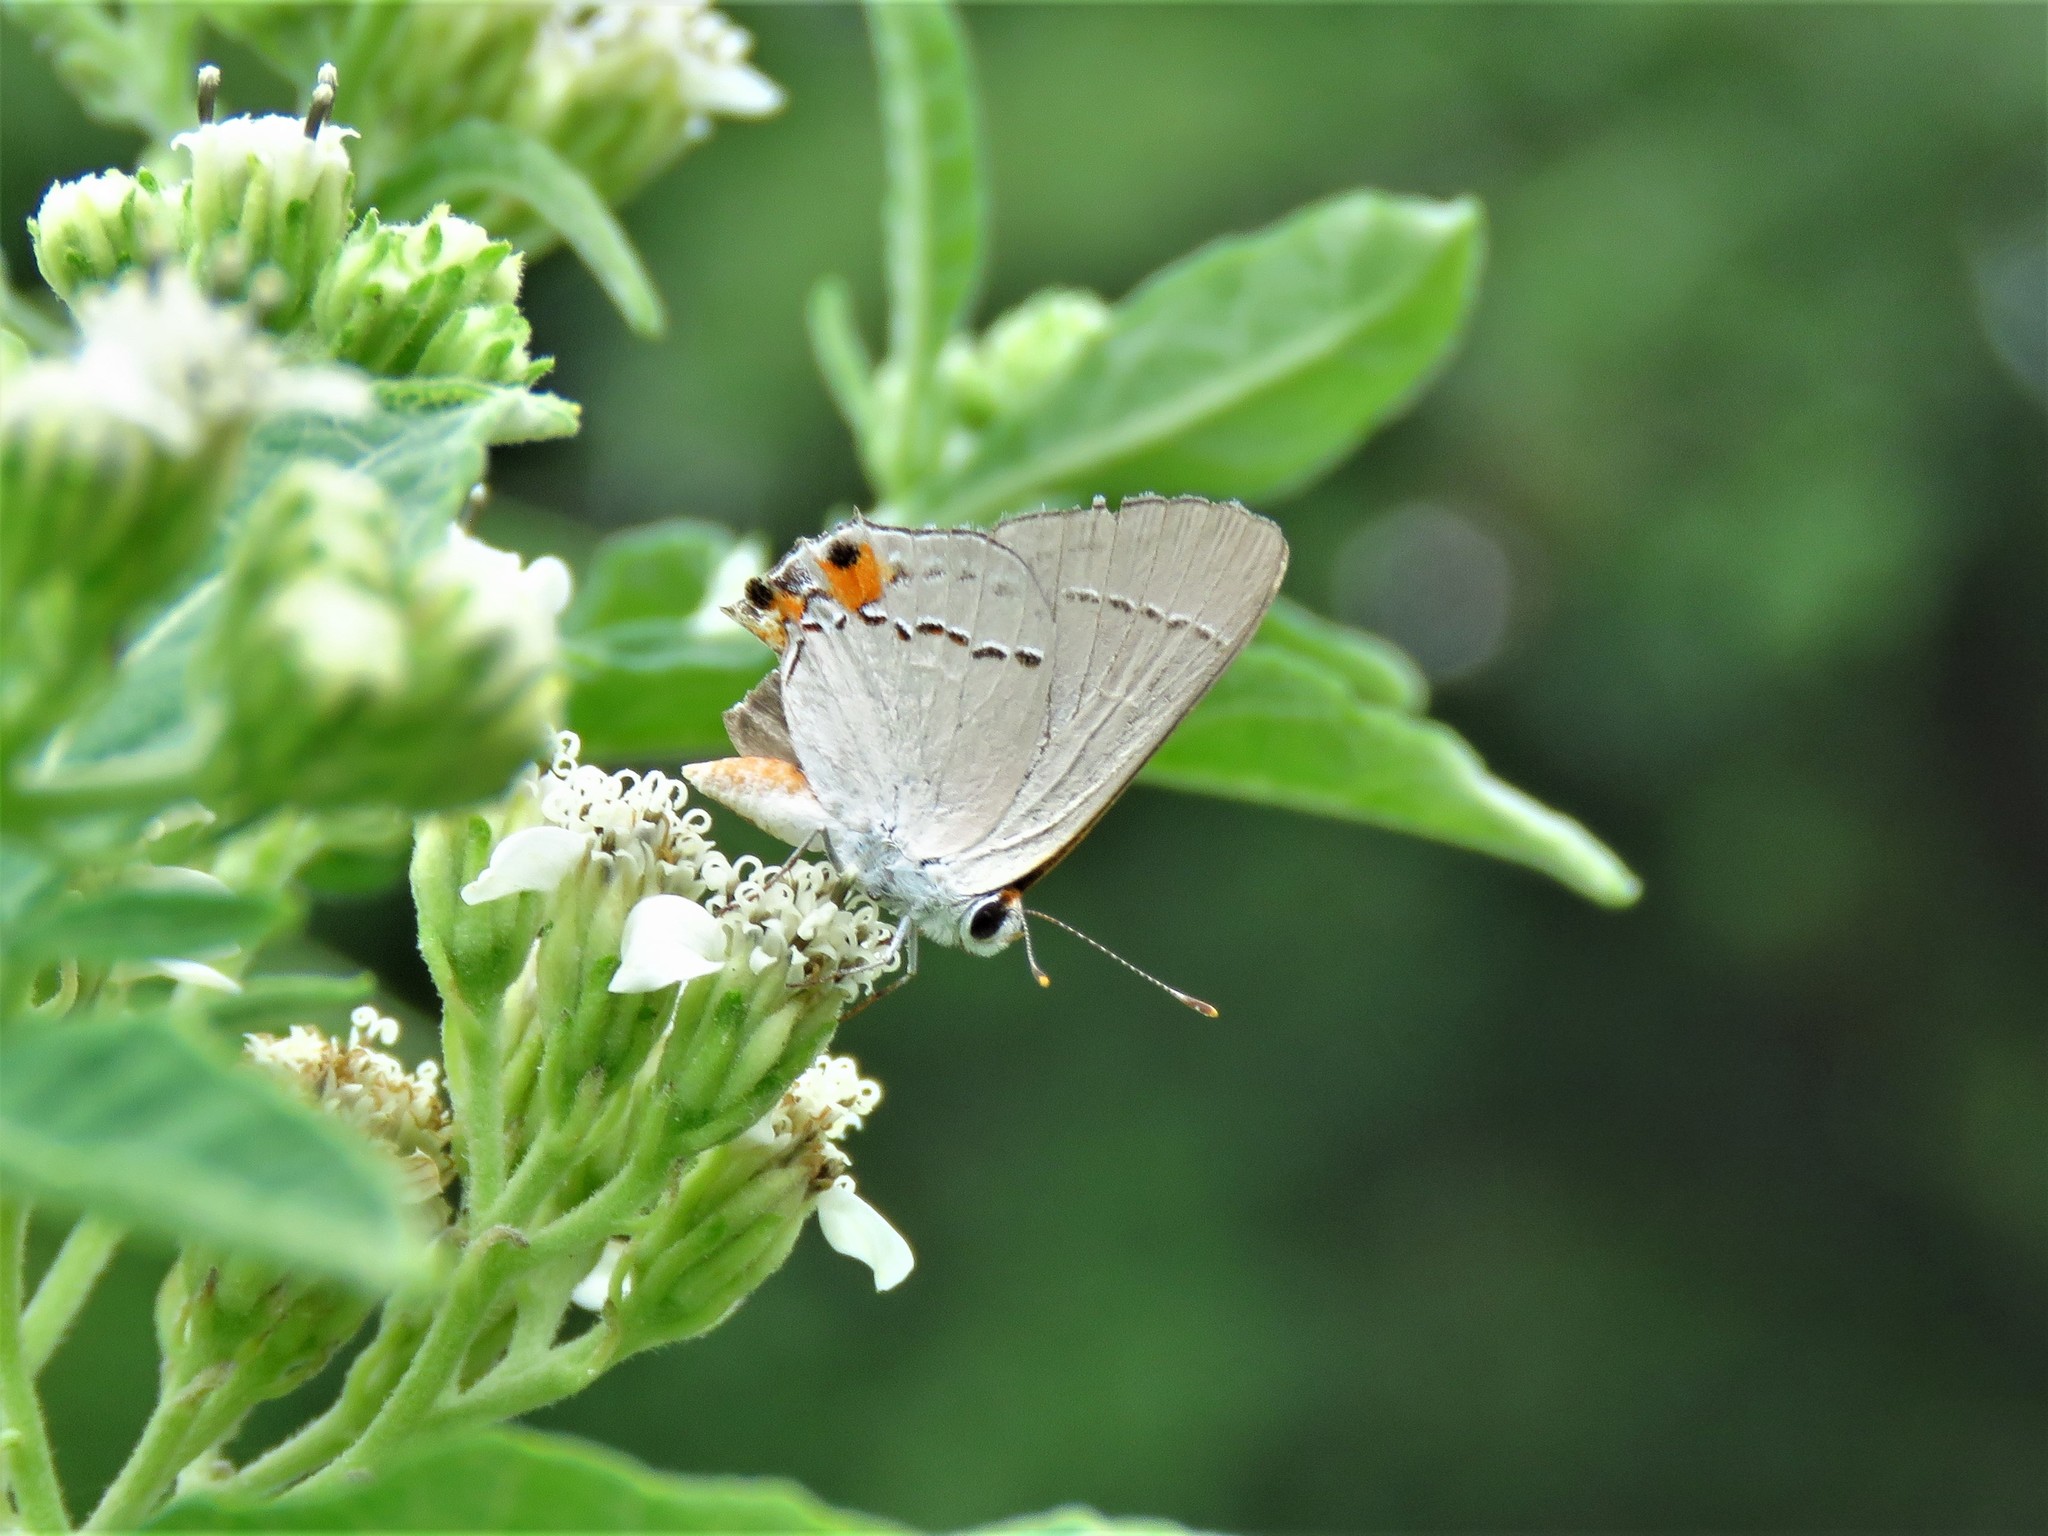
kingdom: Animalia
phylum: Arthropoda
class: Insecta
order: Lepidoptera
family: Lycaenidae
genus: Strymon
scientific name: Strymon melinus
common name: Gray hairstreak
